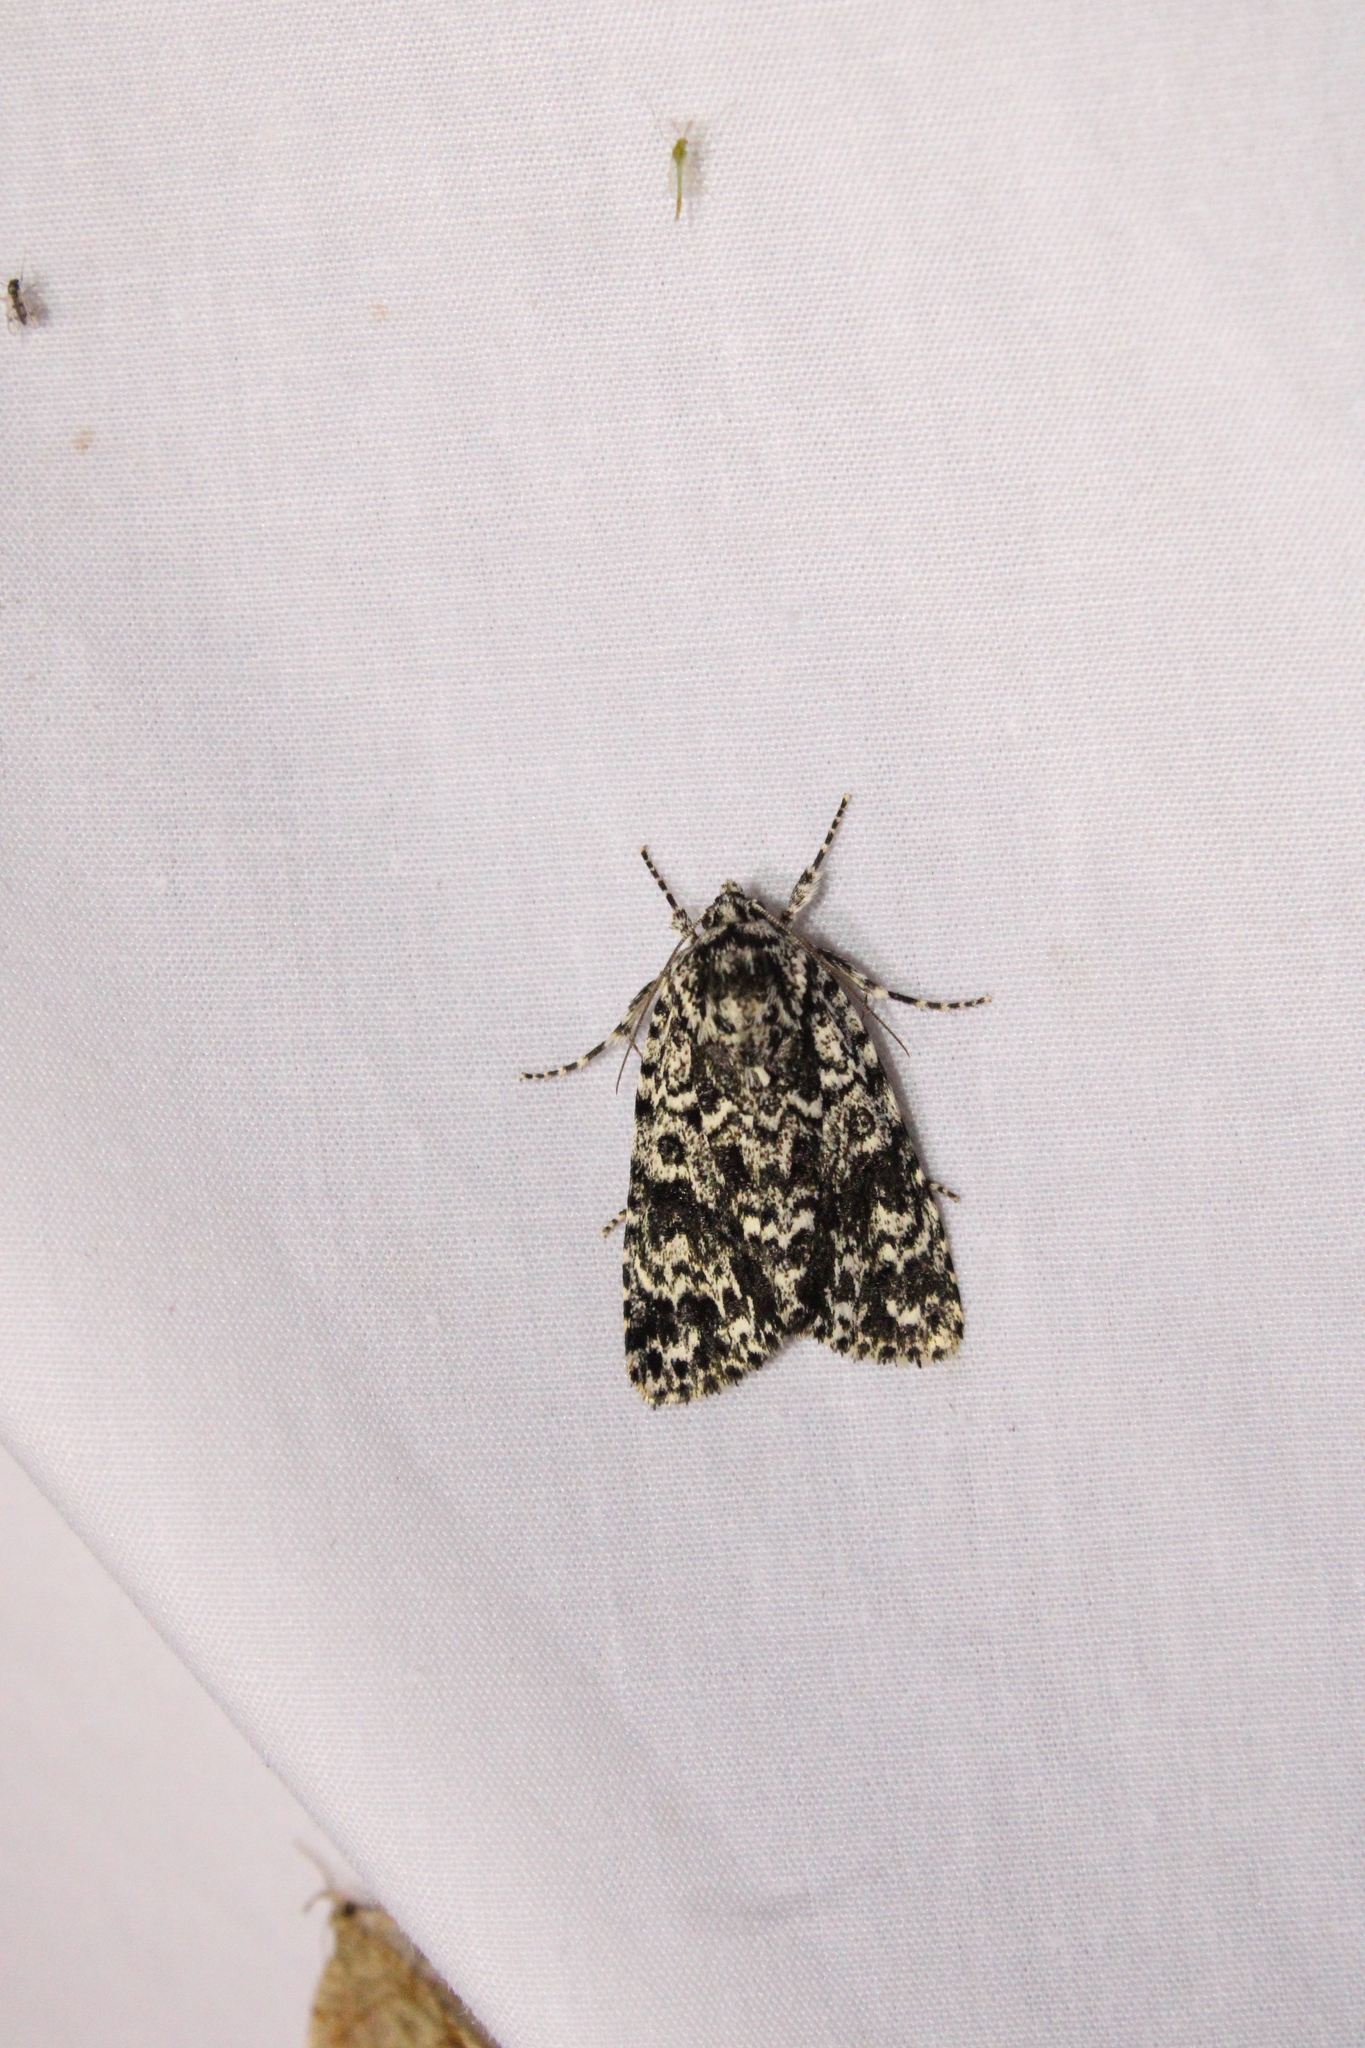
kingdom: Animalia
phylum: Arthropoda
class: Insecta
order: Lepidoptera
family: Noctuidae
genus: Acronicta
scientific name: Acronicta noctivaga
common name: Night-wandering dagger
